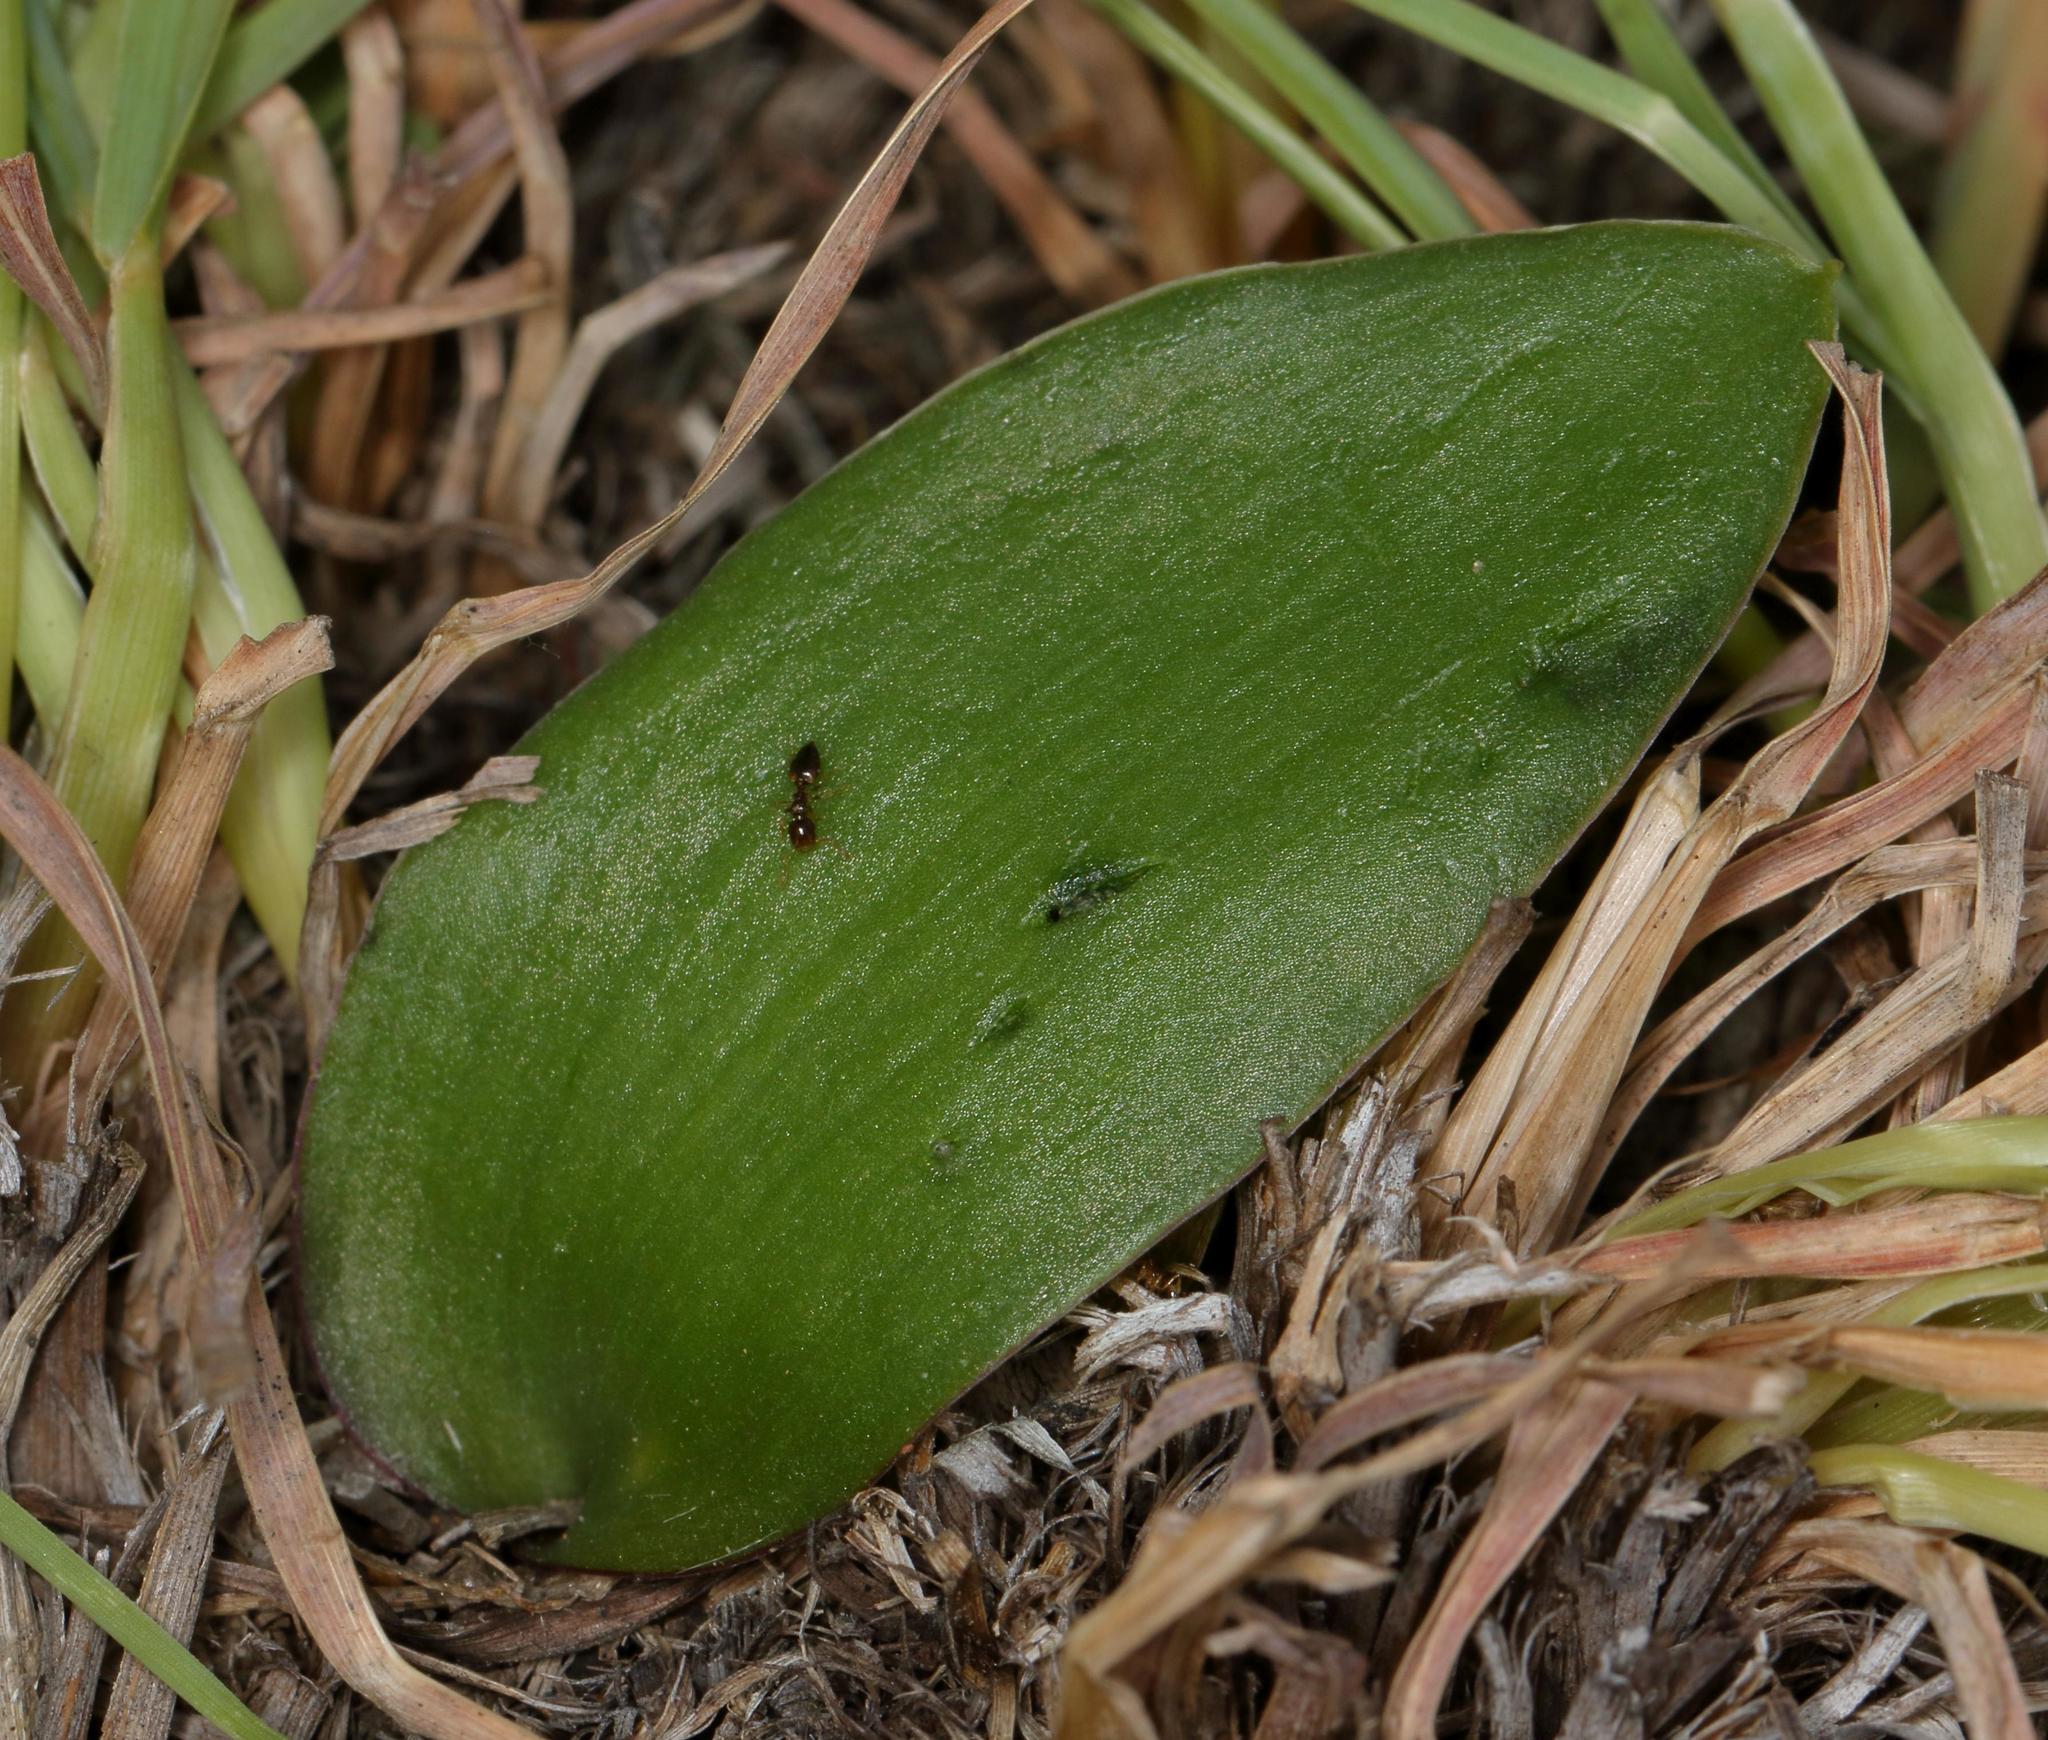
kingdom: Plantae
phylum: Tracheophyta
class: Liliopsida
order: Asparagales
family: Asparagaceae
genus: Ledebouria
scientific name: Ledebouria ovatifolia
